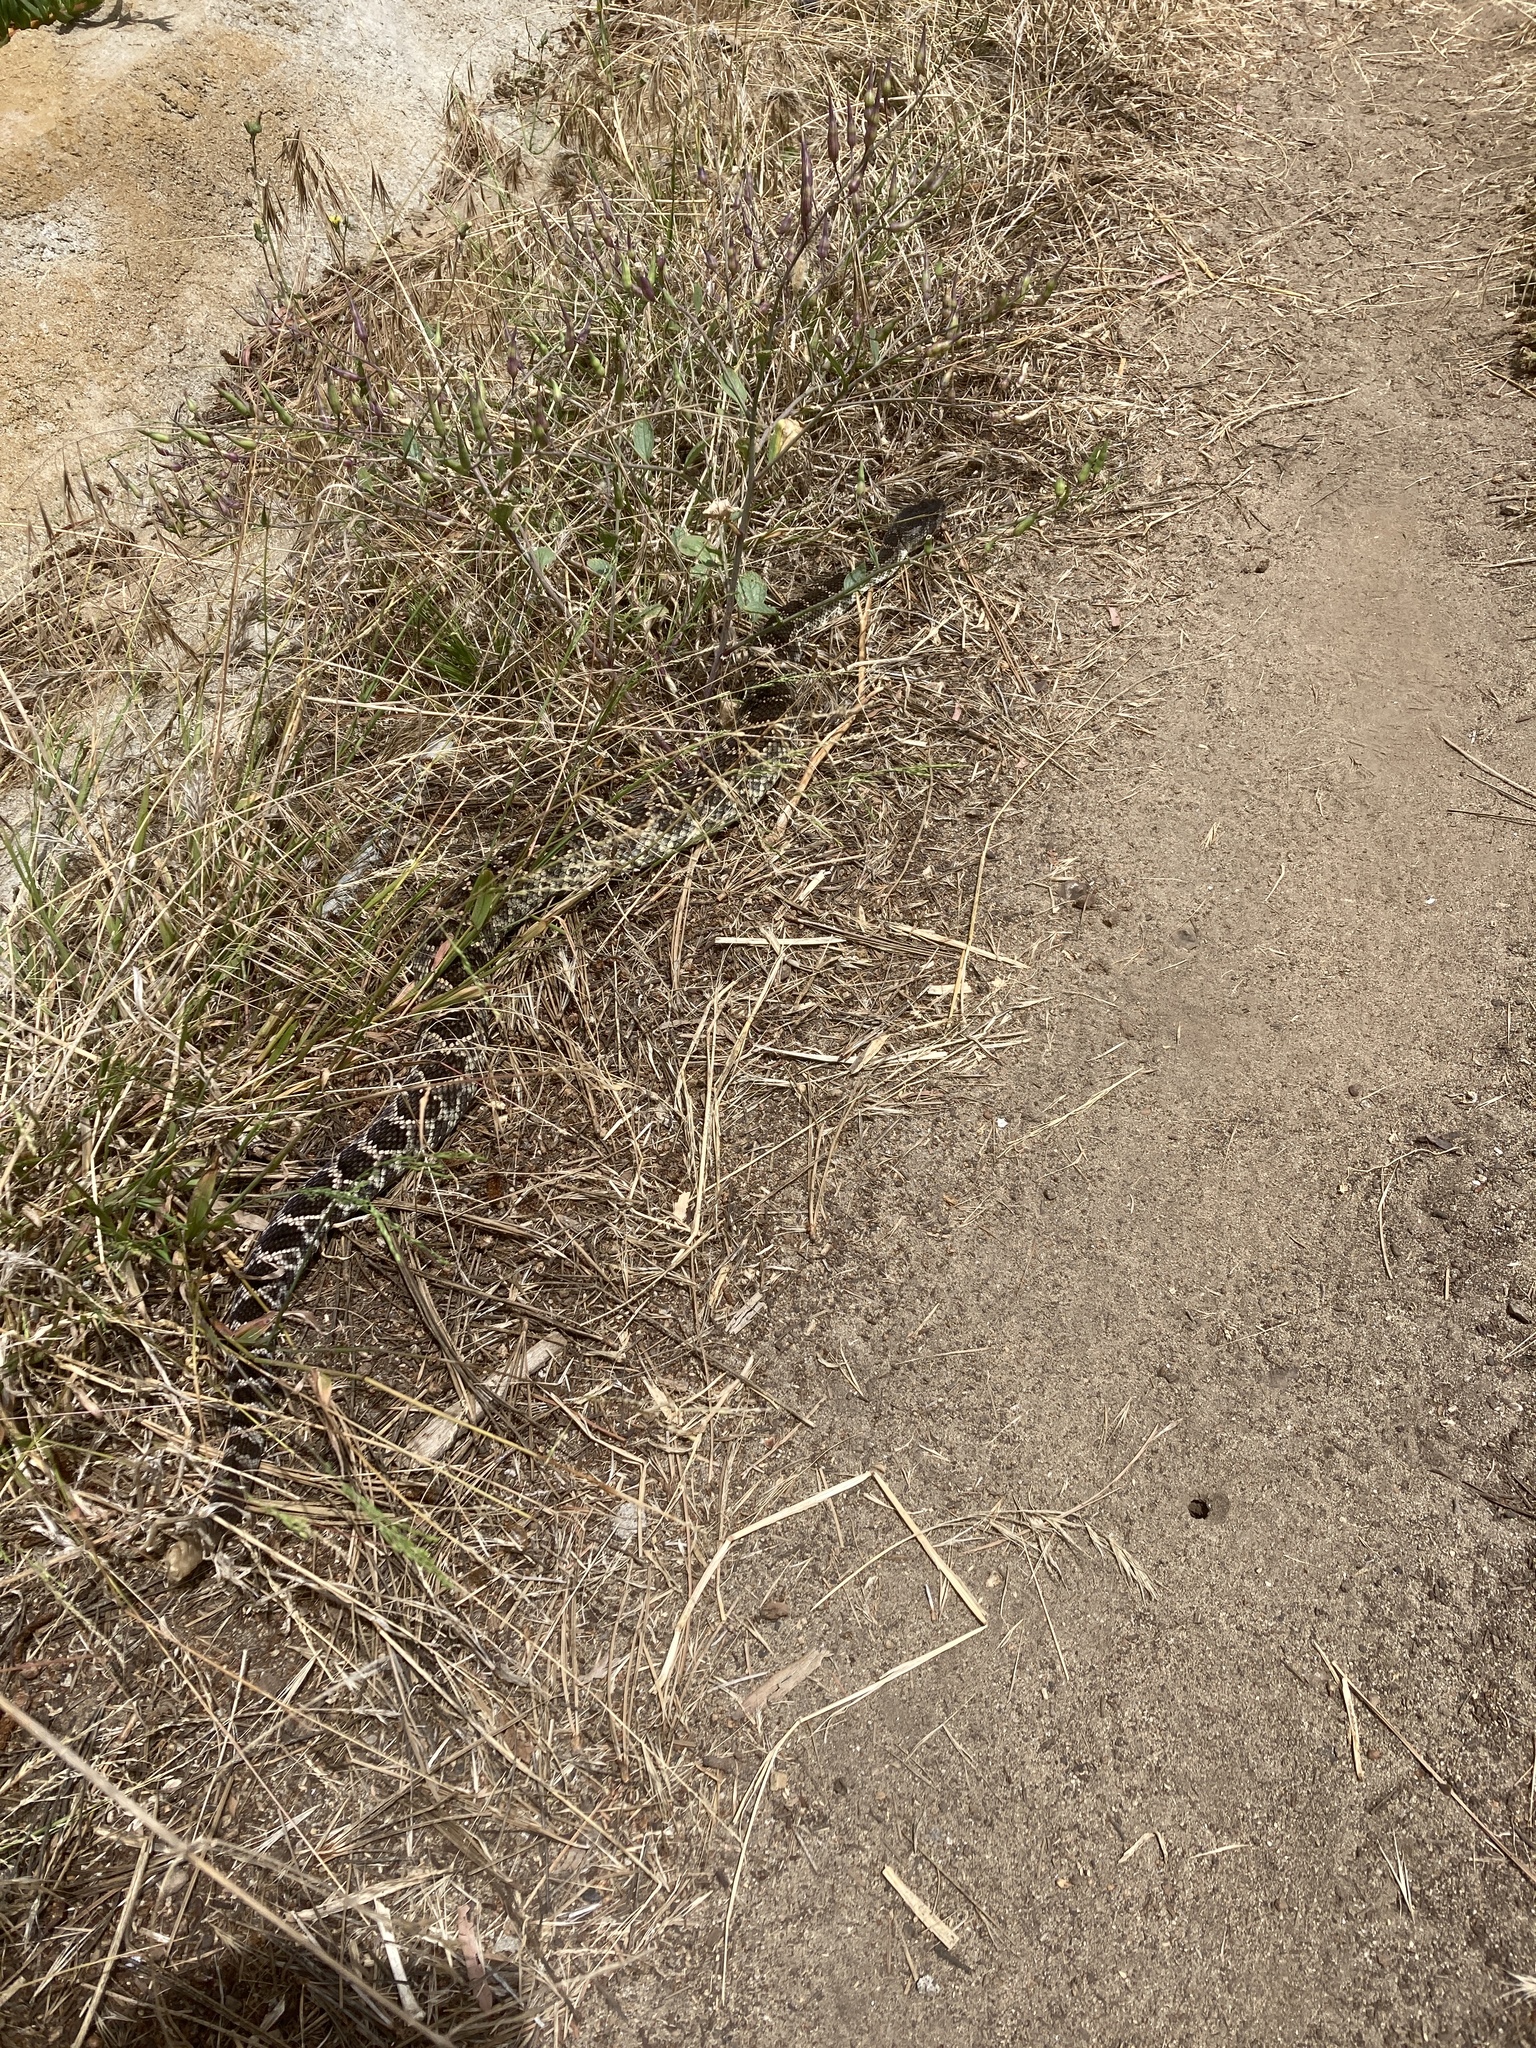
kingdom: Animalia
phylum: Chordata
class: Squamata
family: Viperidae
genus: Crotalus
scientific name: Crotalus oreganus
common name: Abyssus
